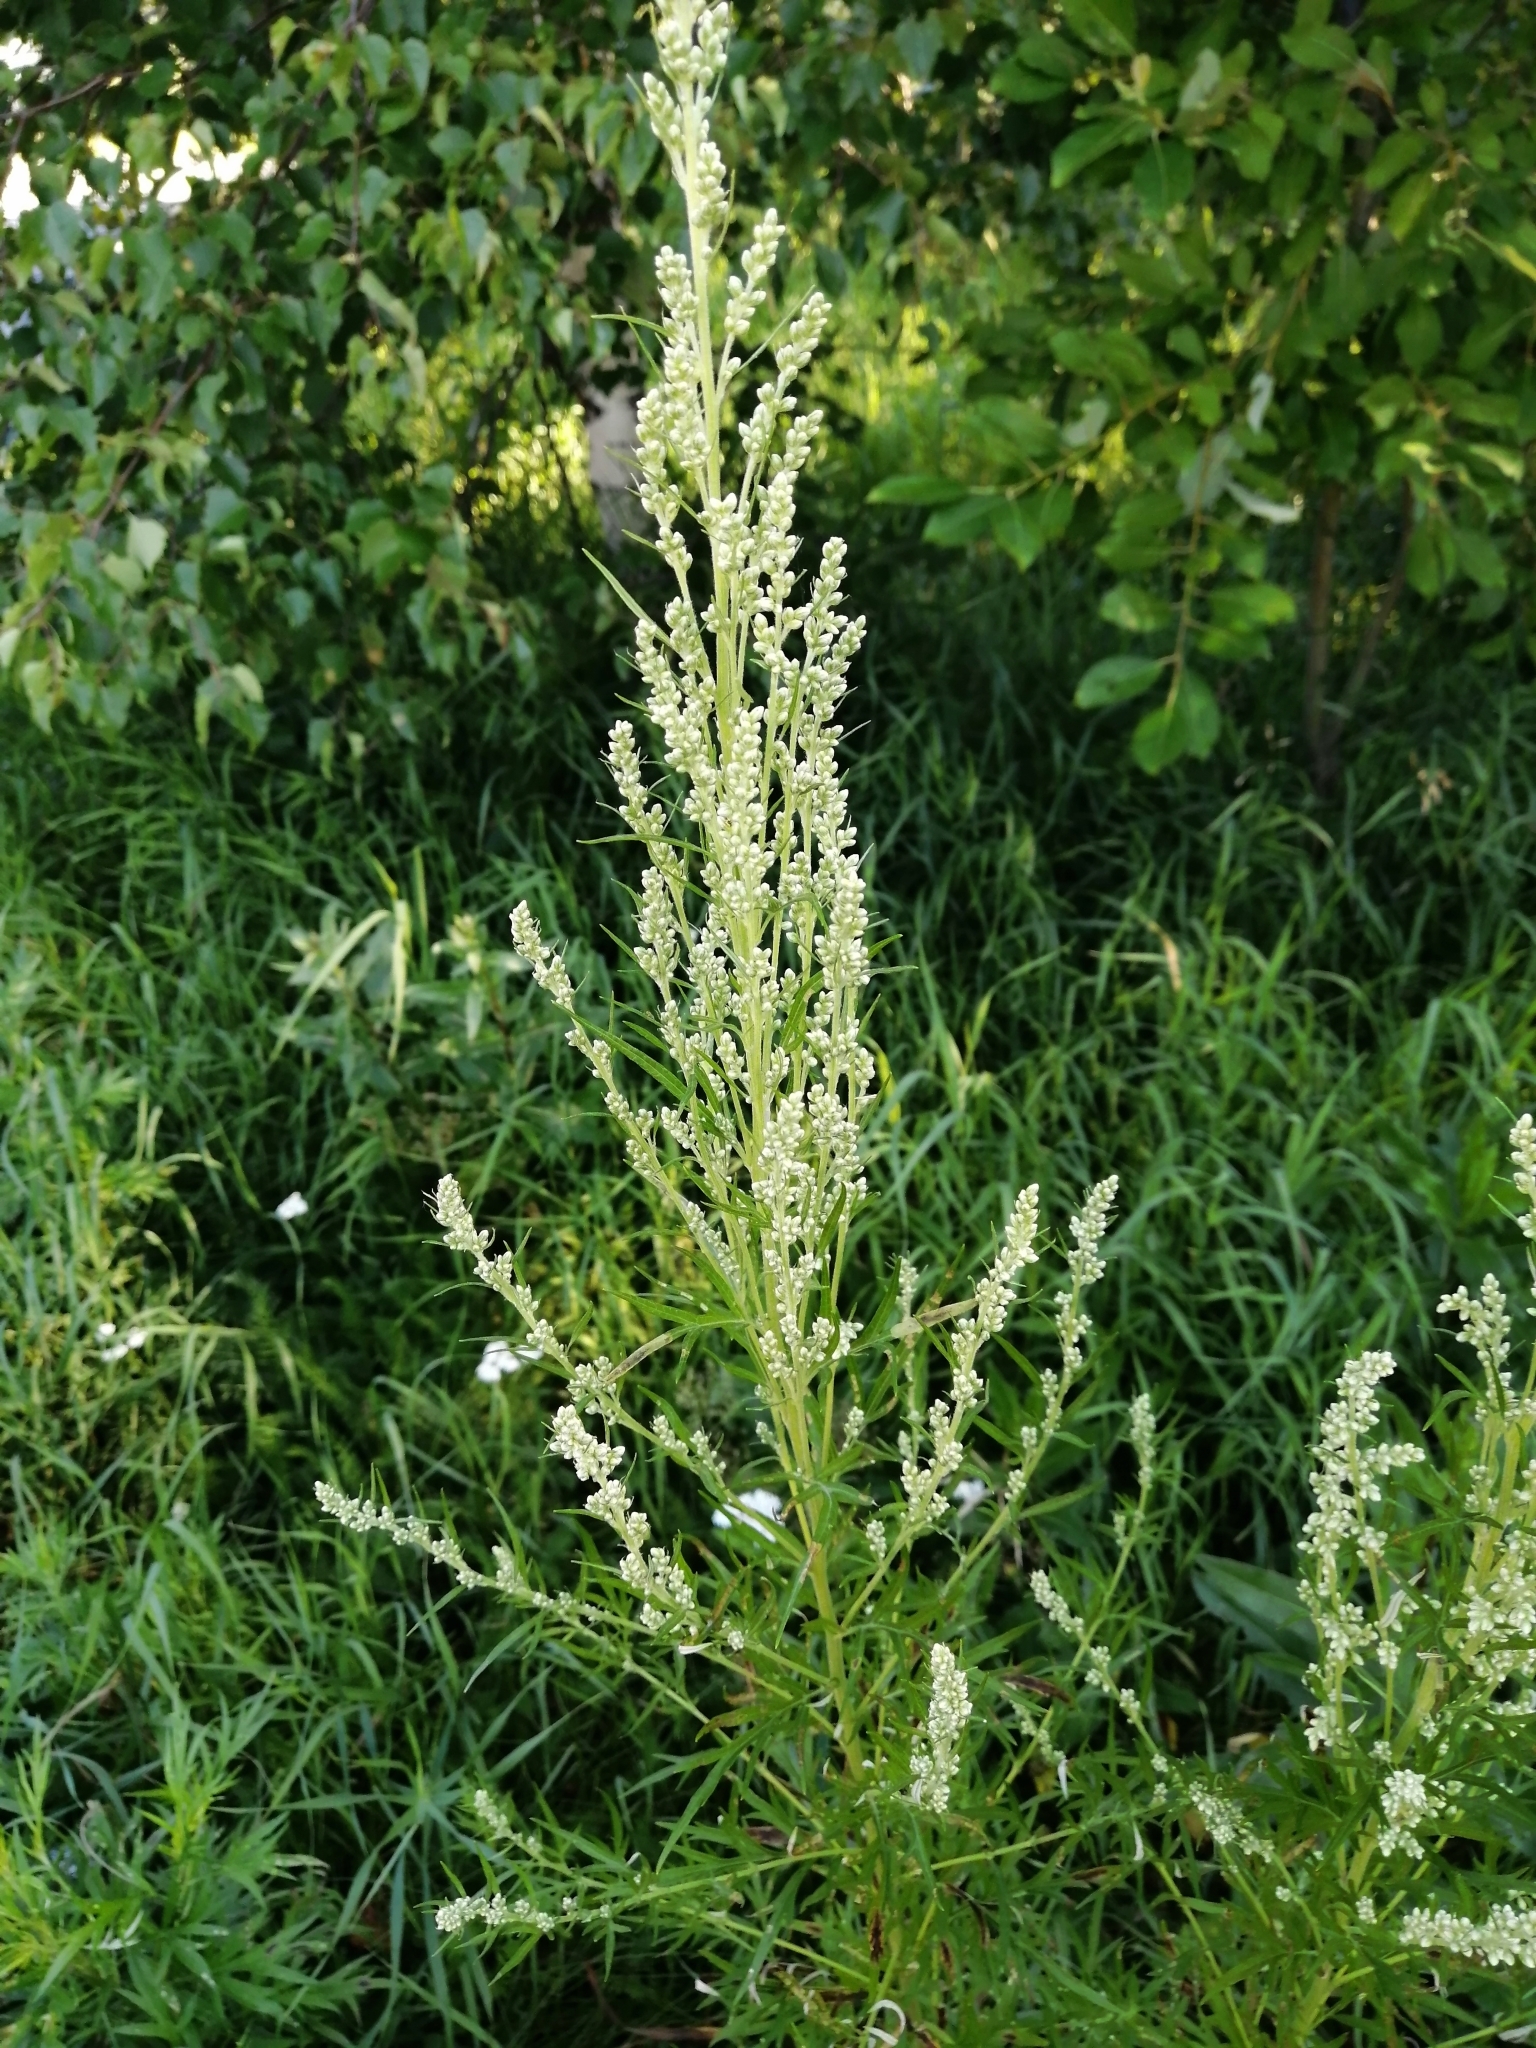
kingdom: Plantae
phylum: Tracheophyta
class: Magnoliopsida
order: Asterales
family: Asteraceae
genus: Artemisia
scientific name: Artemisia vulgaris
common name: Mugwort
